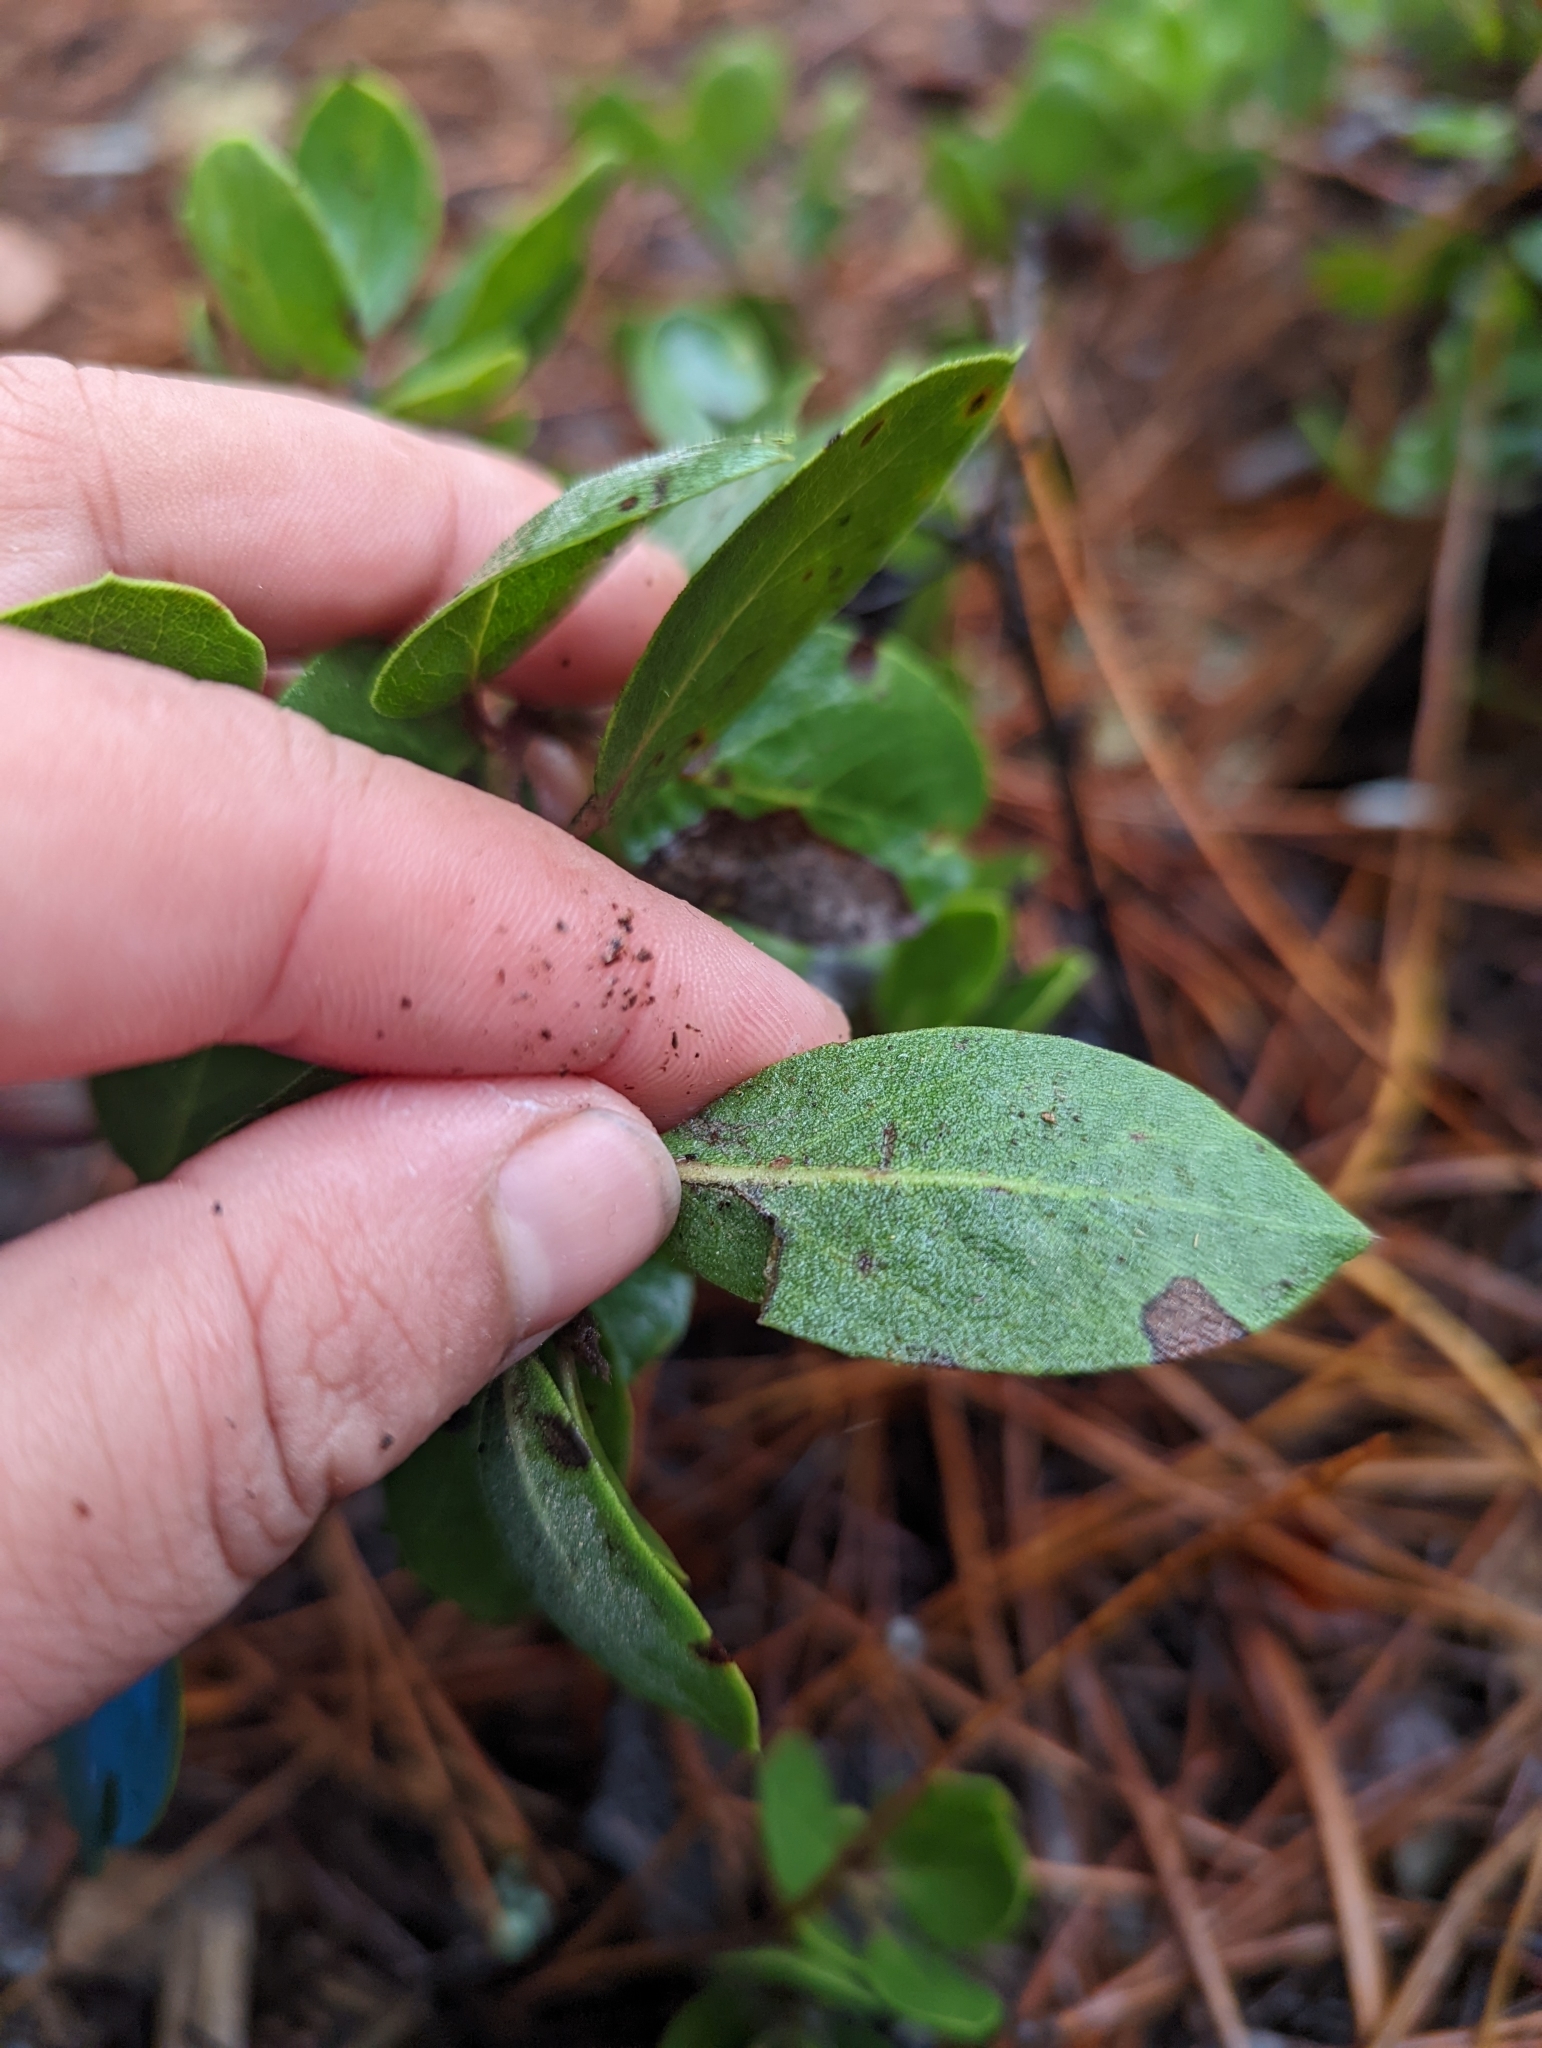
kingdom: Plantae
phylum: Tracheophyta
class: Magnoliopsida
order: Ericales
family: Ericaceae
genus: Arctostaphylos
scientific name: Arctostaphylos glandulosa
